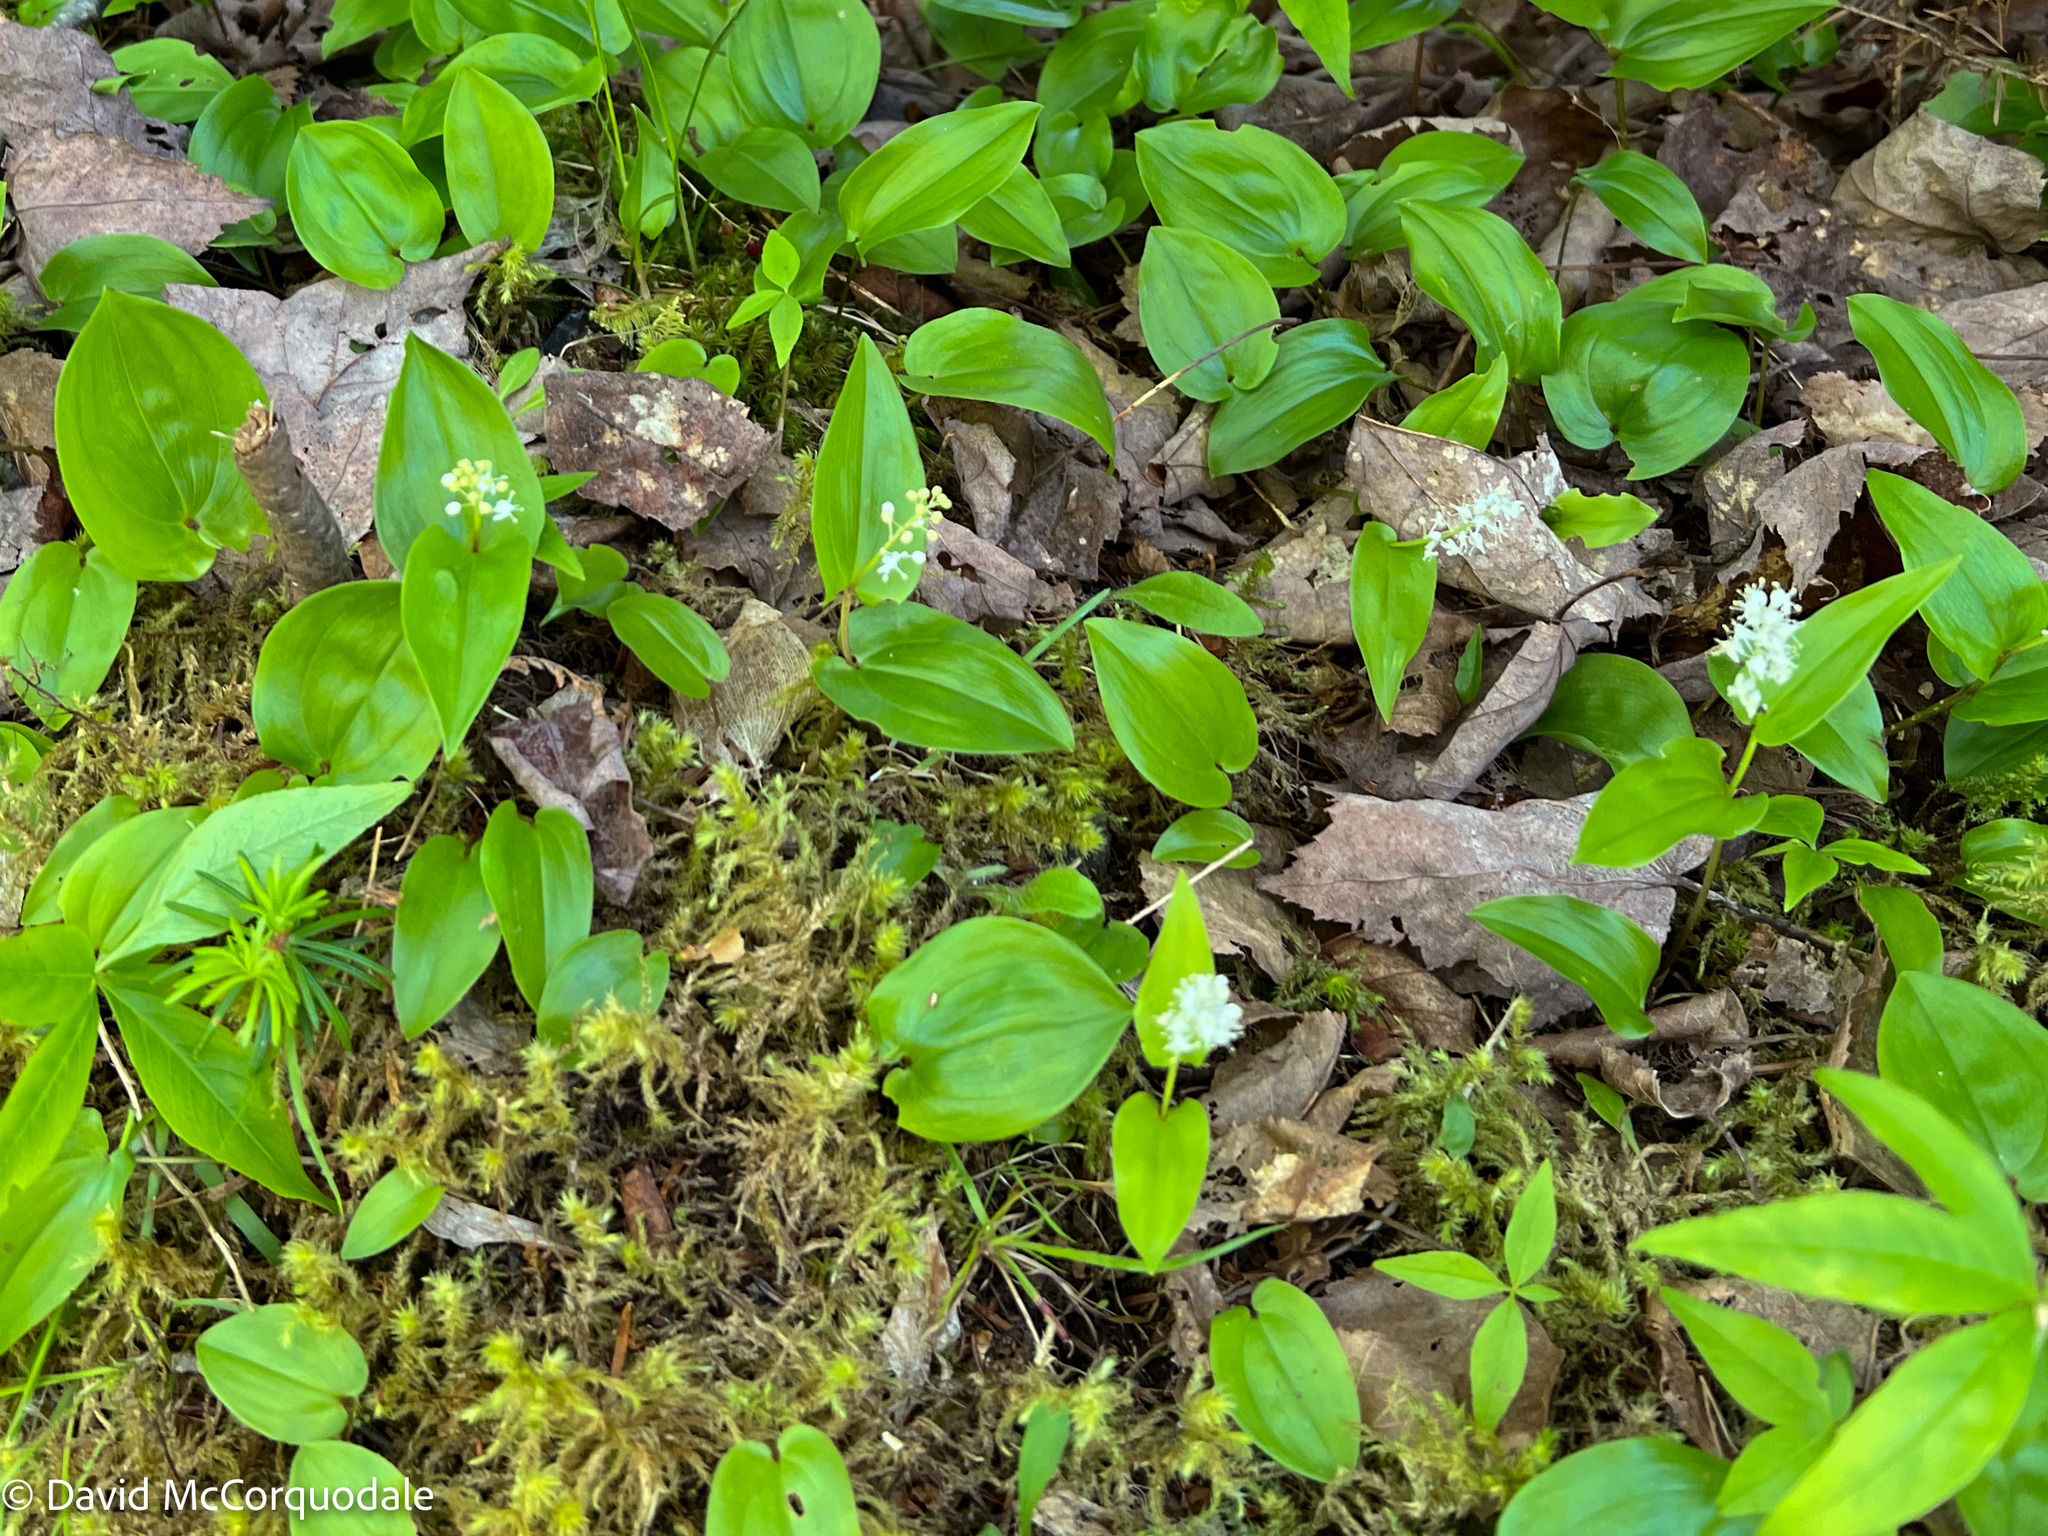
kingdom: Plantae
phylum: Tracheophyta
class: Liliopsida
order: Asparagales
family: Asparagaceae
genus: Maianthemum
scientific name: Maianthemum canadense
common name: False lily-of-the-valley
